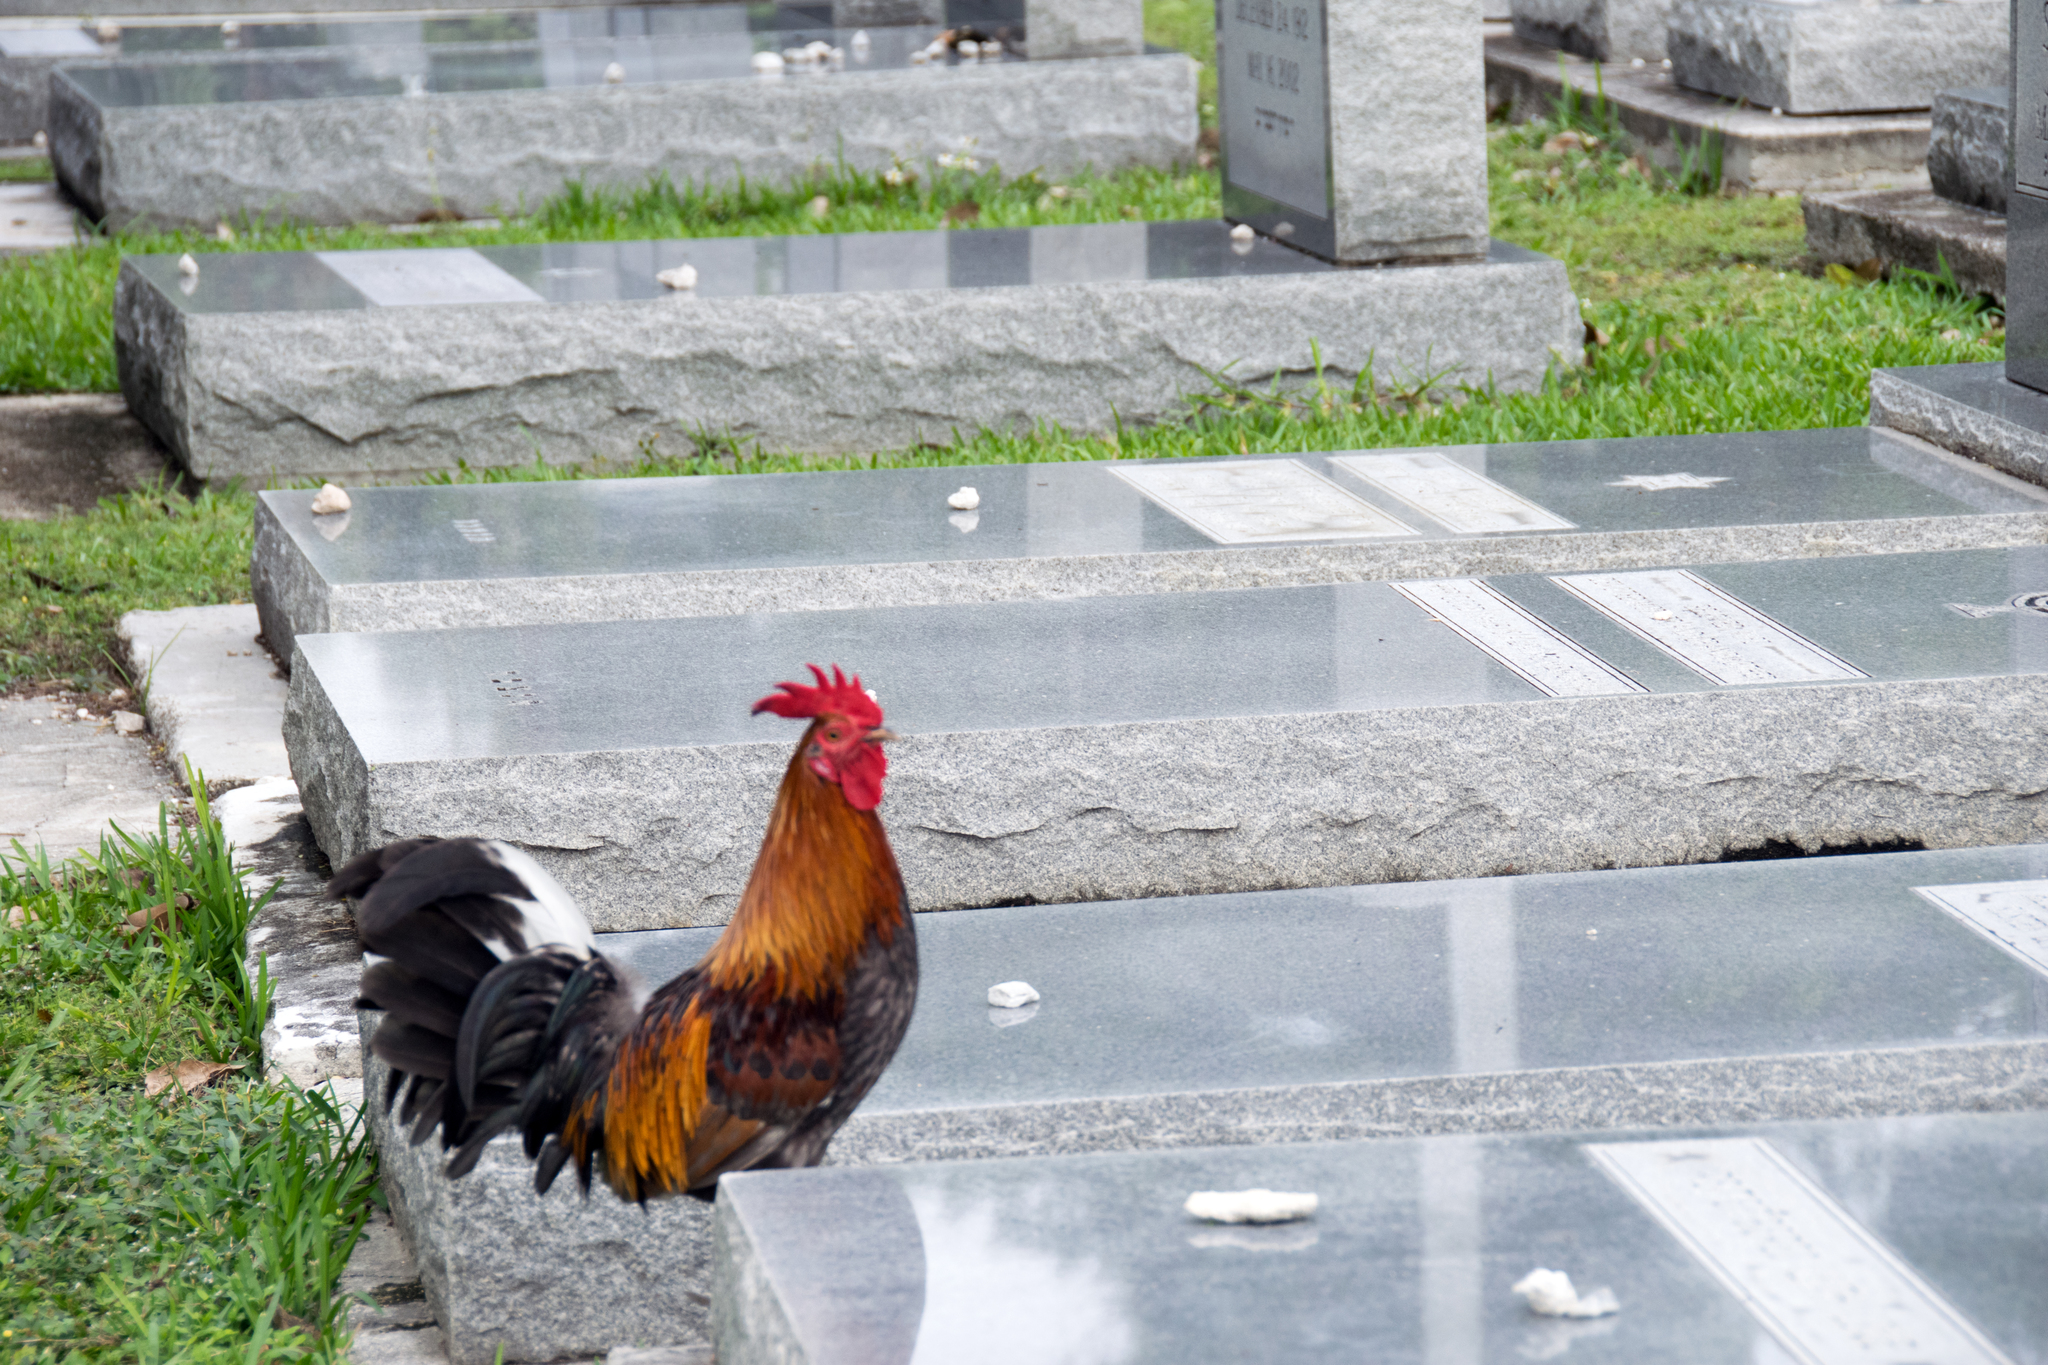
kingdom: Animalia
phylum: Chordata
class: Aves
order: Galliformes
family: Phasianidae
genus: Gallus
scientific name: Gallus gallus
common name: Red junglefowl
